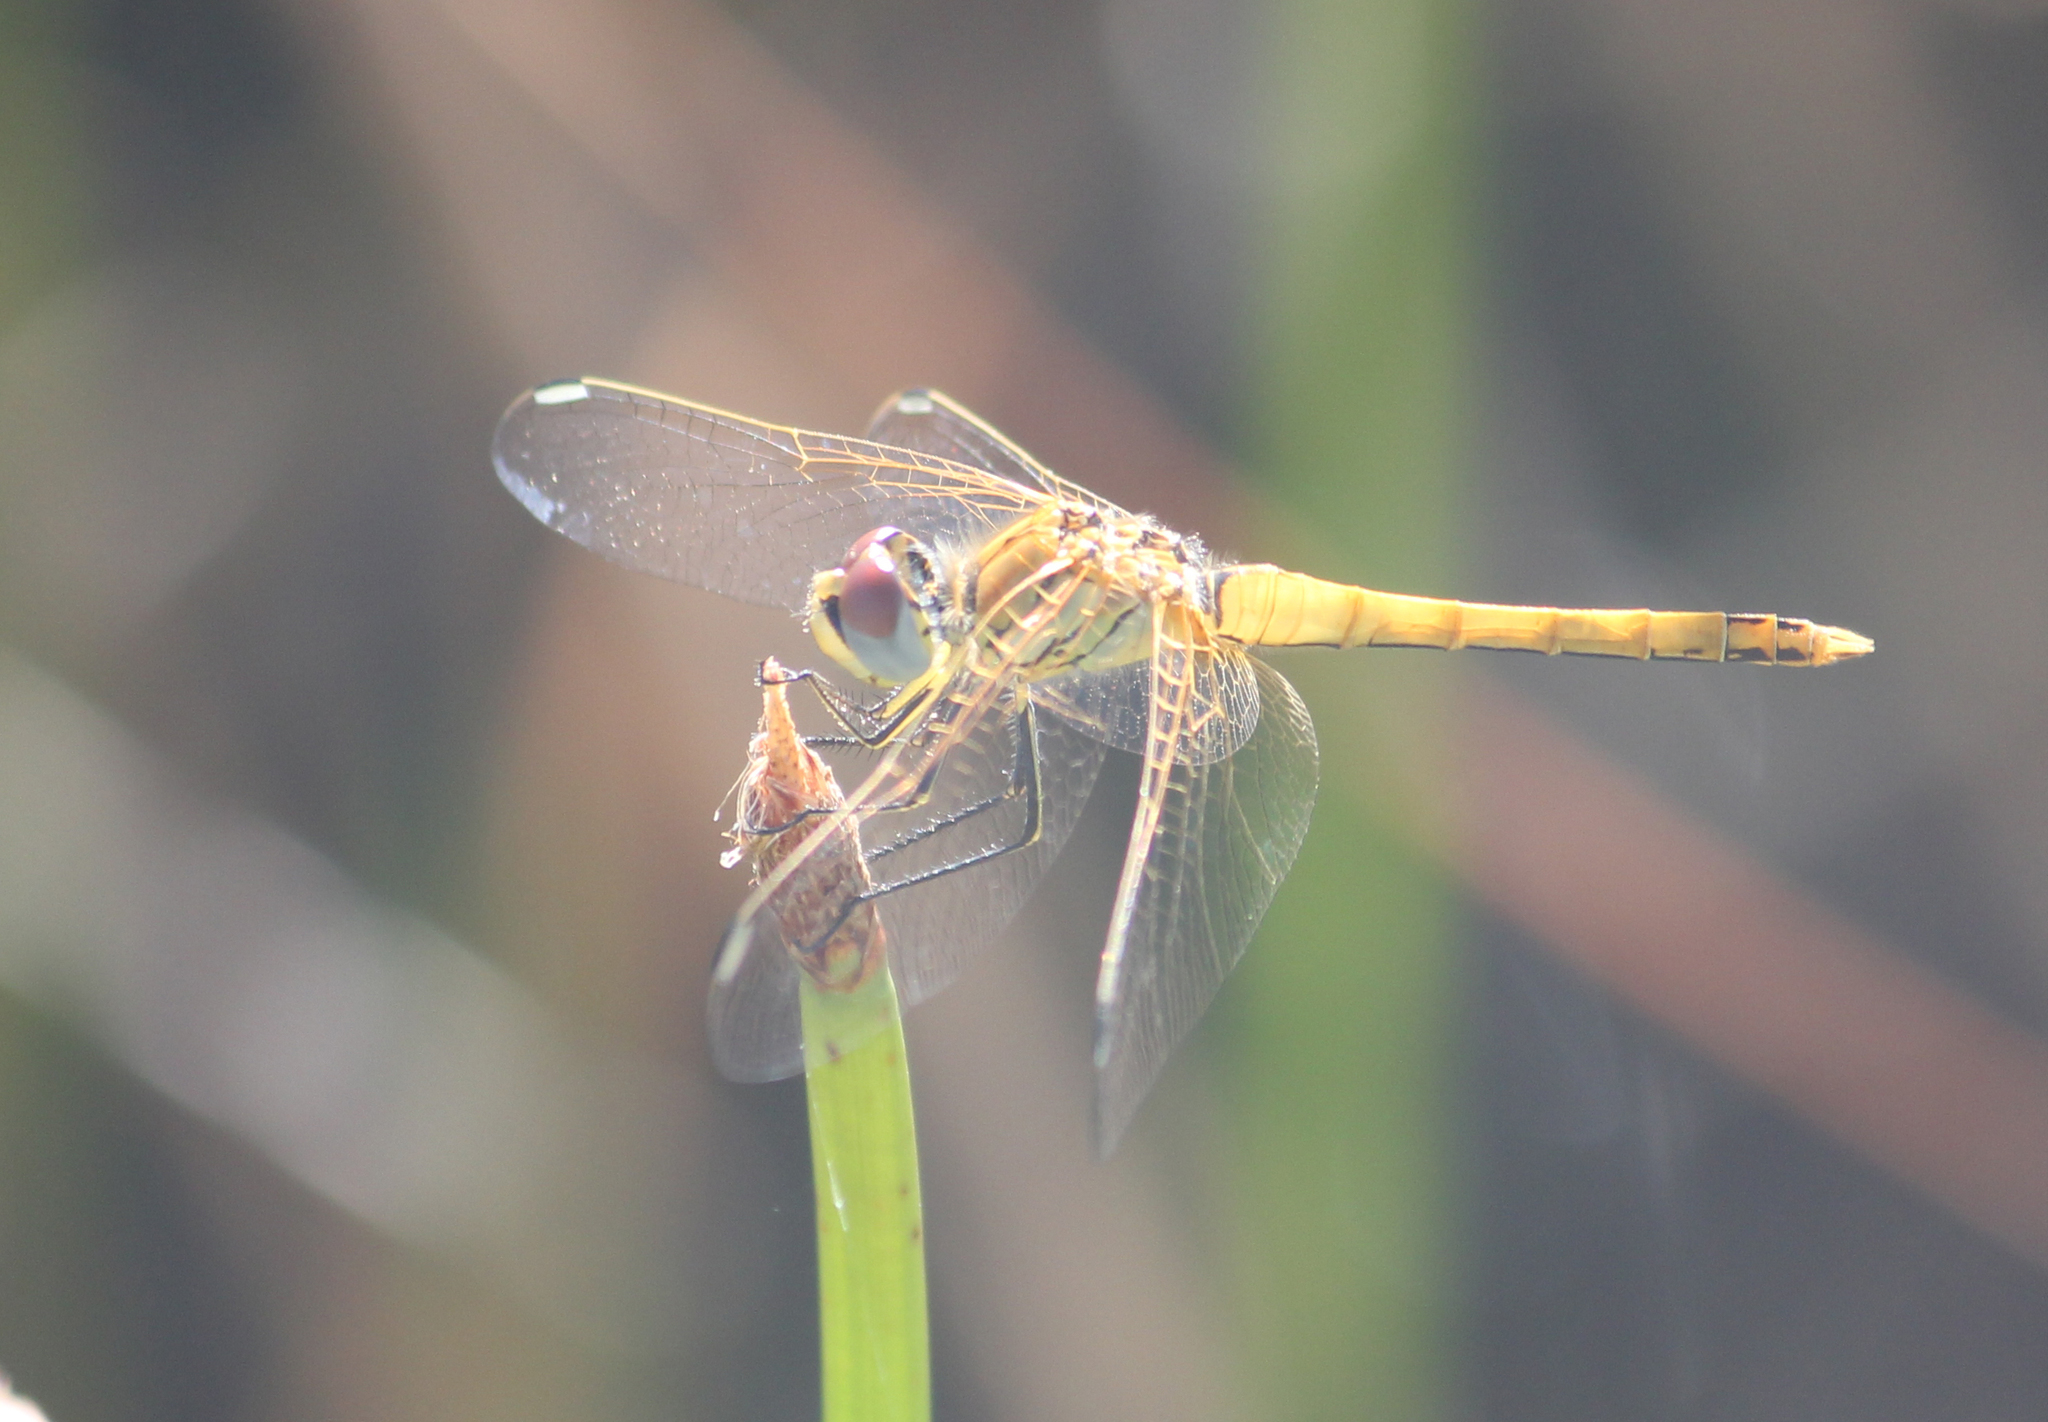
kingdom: Animalia
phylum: Arthropoda
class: Insecta
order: Odonata
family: Libellulidae
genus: Sympetrum
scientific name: Sympetrum fonscolombii
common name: Red-veined darter
